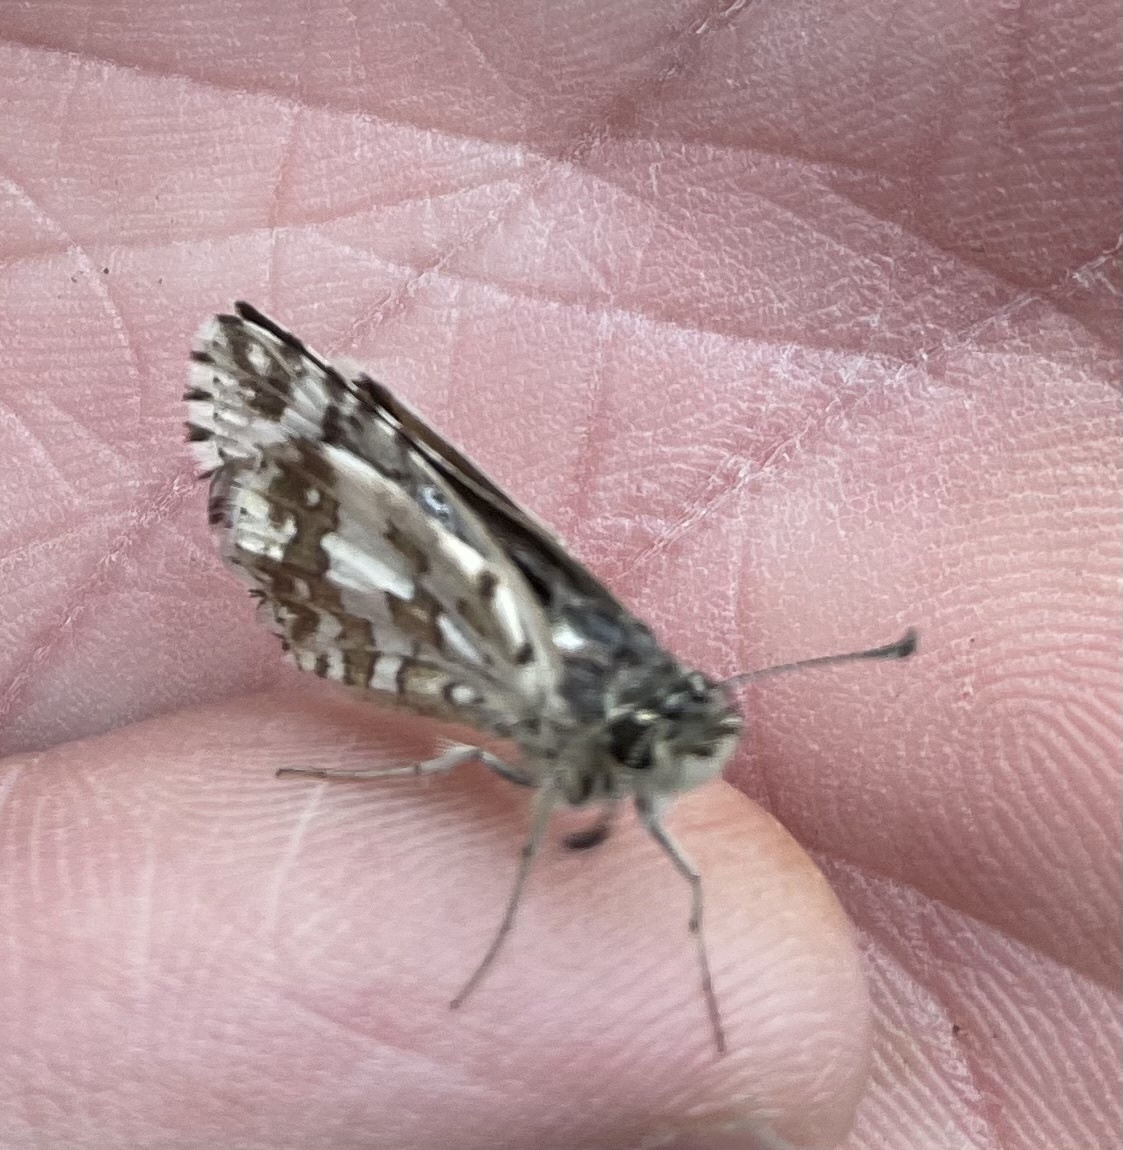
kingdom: Animalia
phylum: Arthropoda
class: Insecta
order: Lepidoptera
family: Hesperiidae
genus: Burnsius
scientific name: Burnsius
